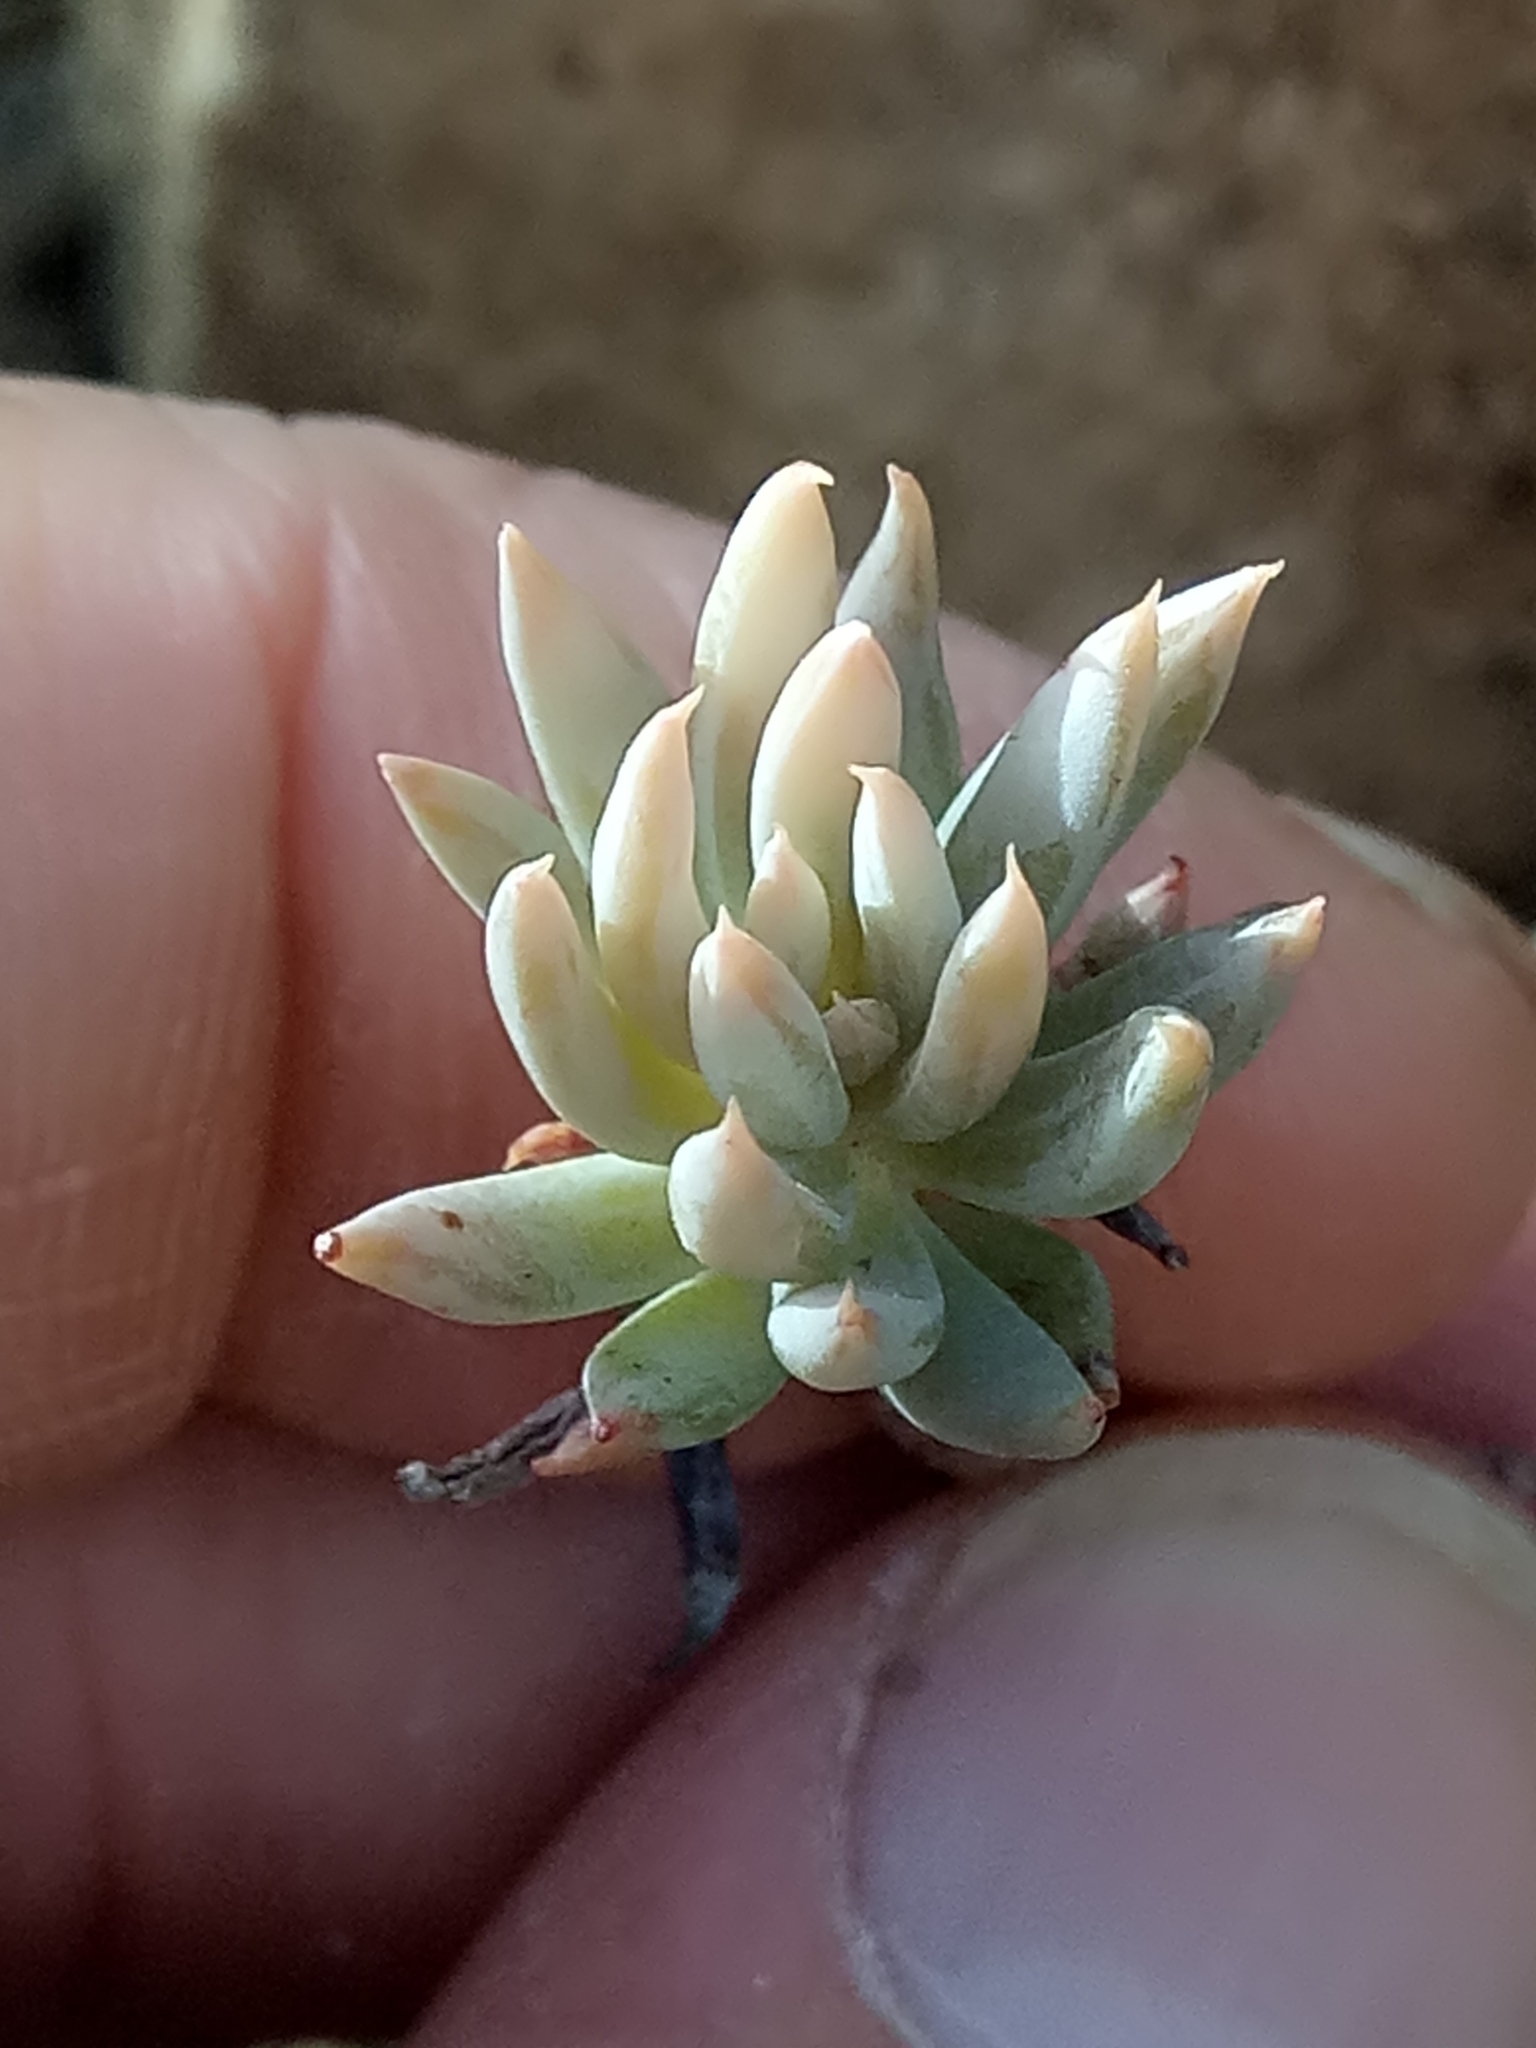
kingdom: Plantae
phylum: Tracheophyta
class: Magnoliopsida
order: Saxifragales
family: Crassulaceae
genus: Petrosedum
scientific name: Petrosedum sediforme
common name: Pale stonecrop
